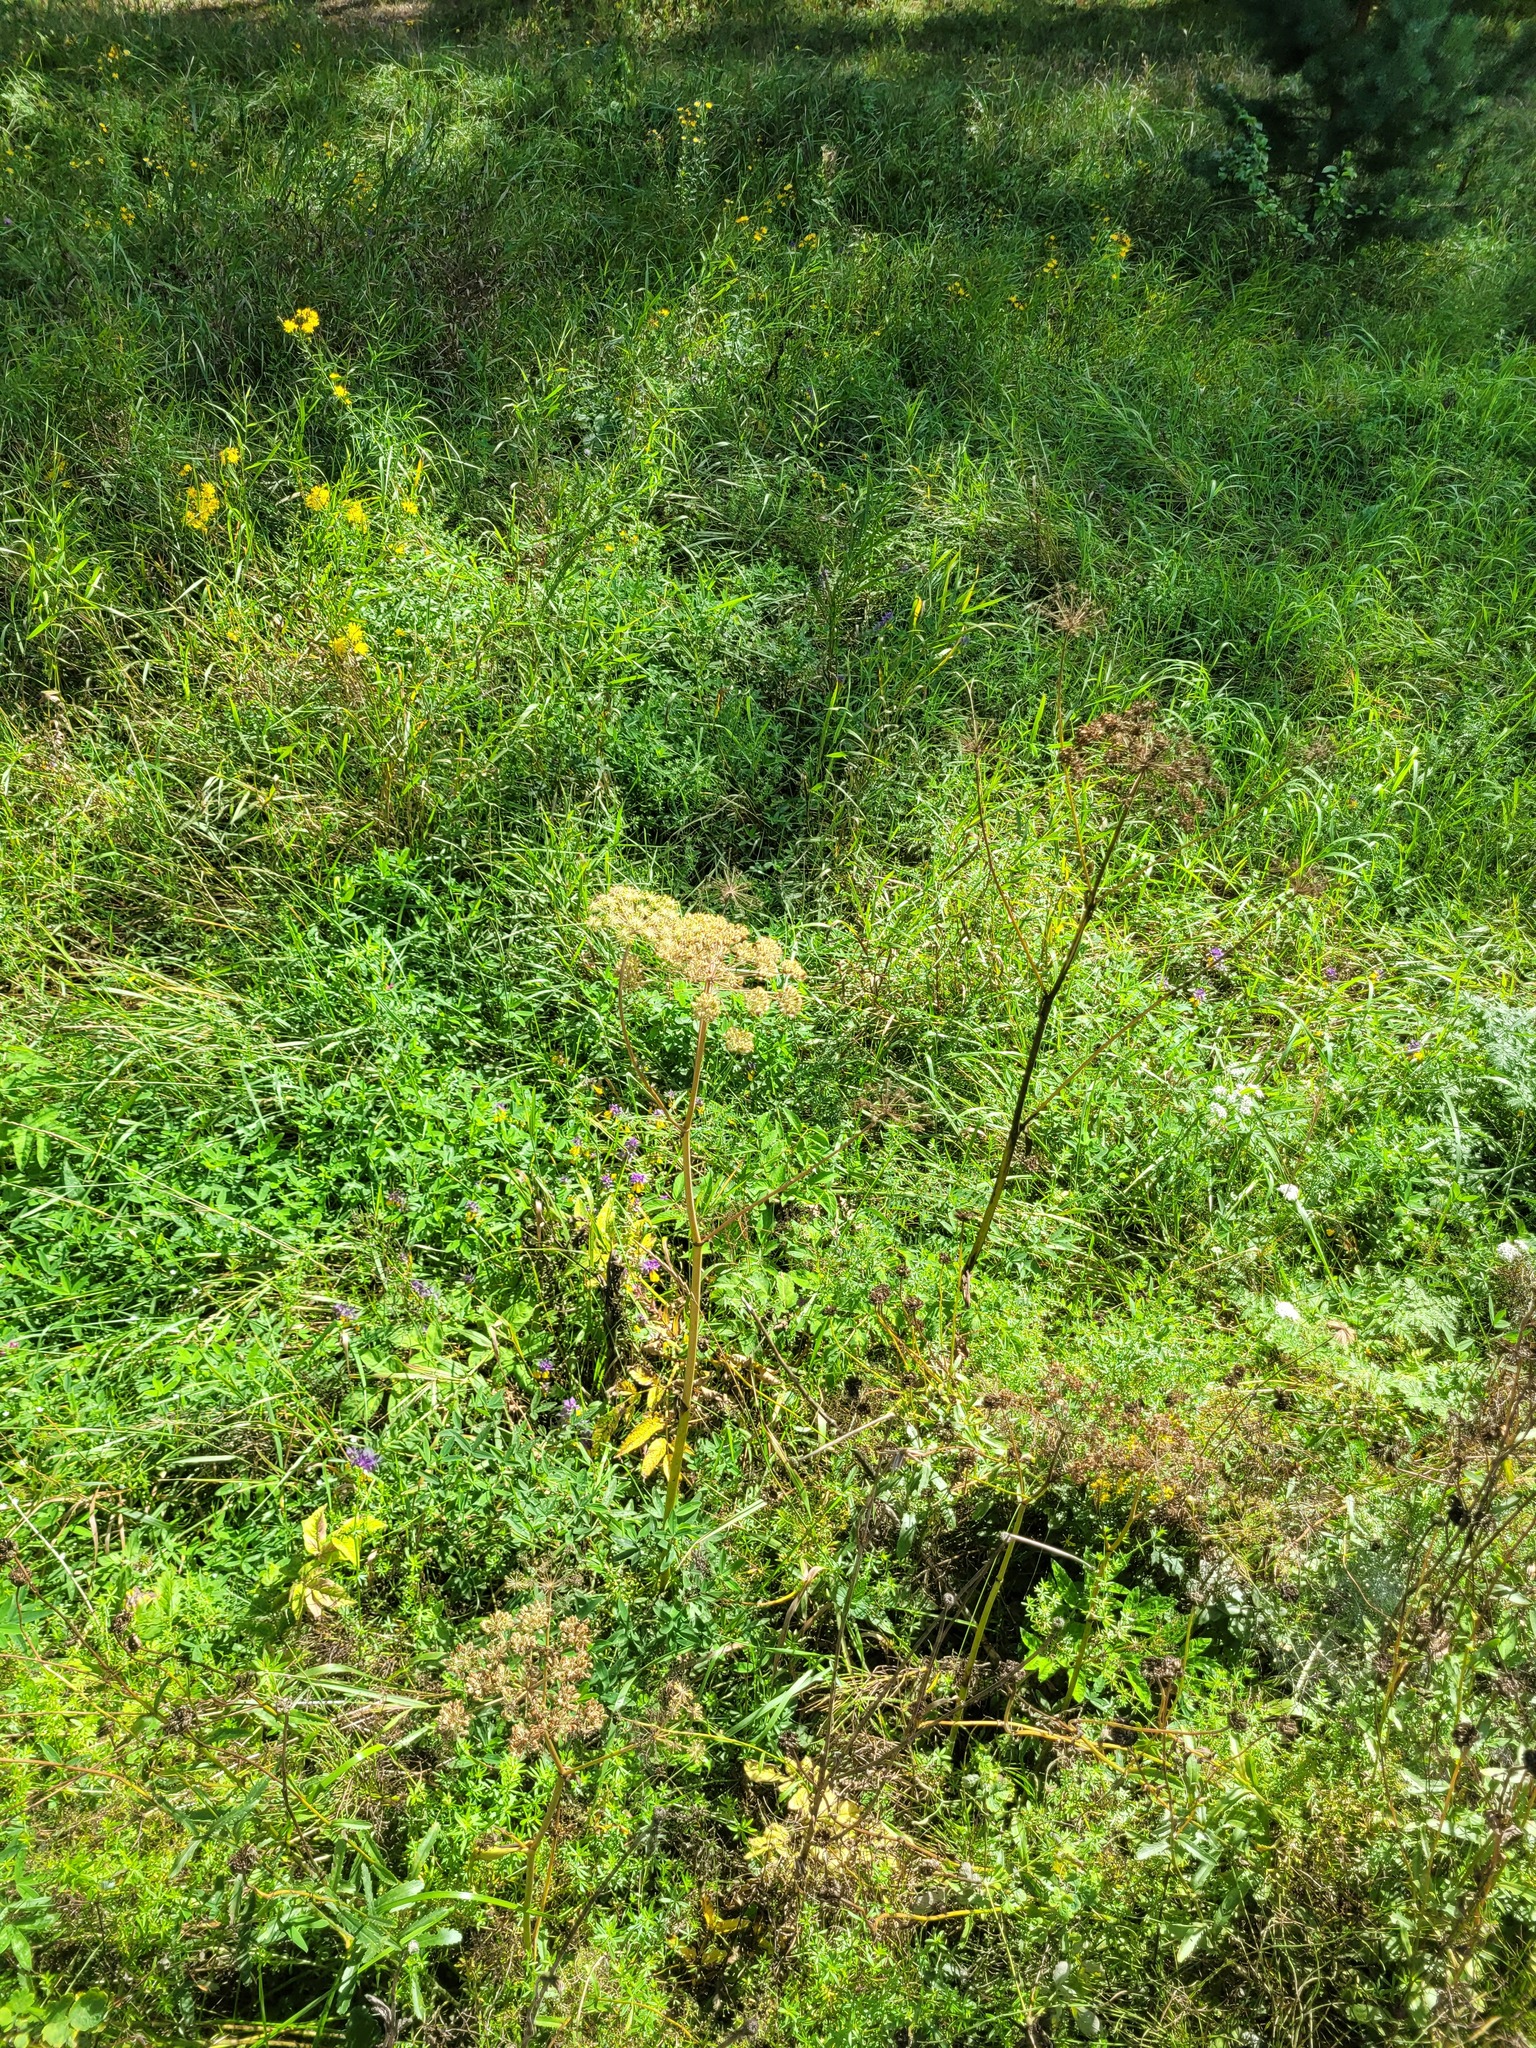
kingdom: Plantae
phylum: Tracheophyta
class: Magnoliopsida
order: Apiales
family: Apiaceae
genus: Angelica
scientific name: Angelica sylvestris
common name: Wild angelica
